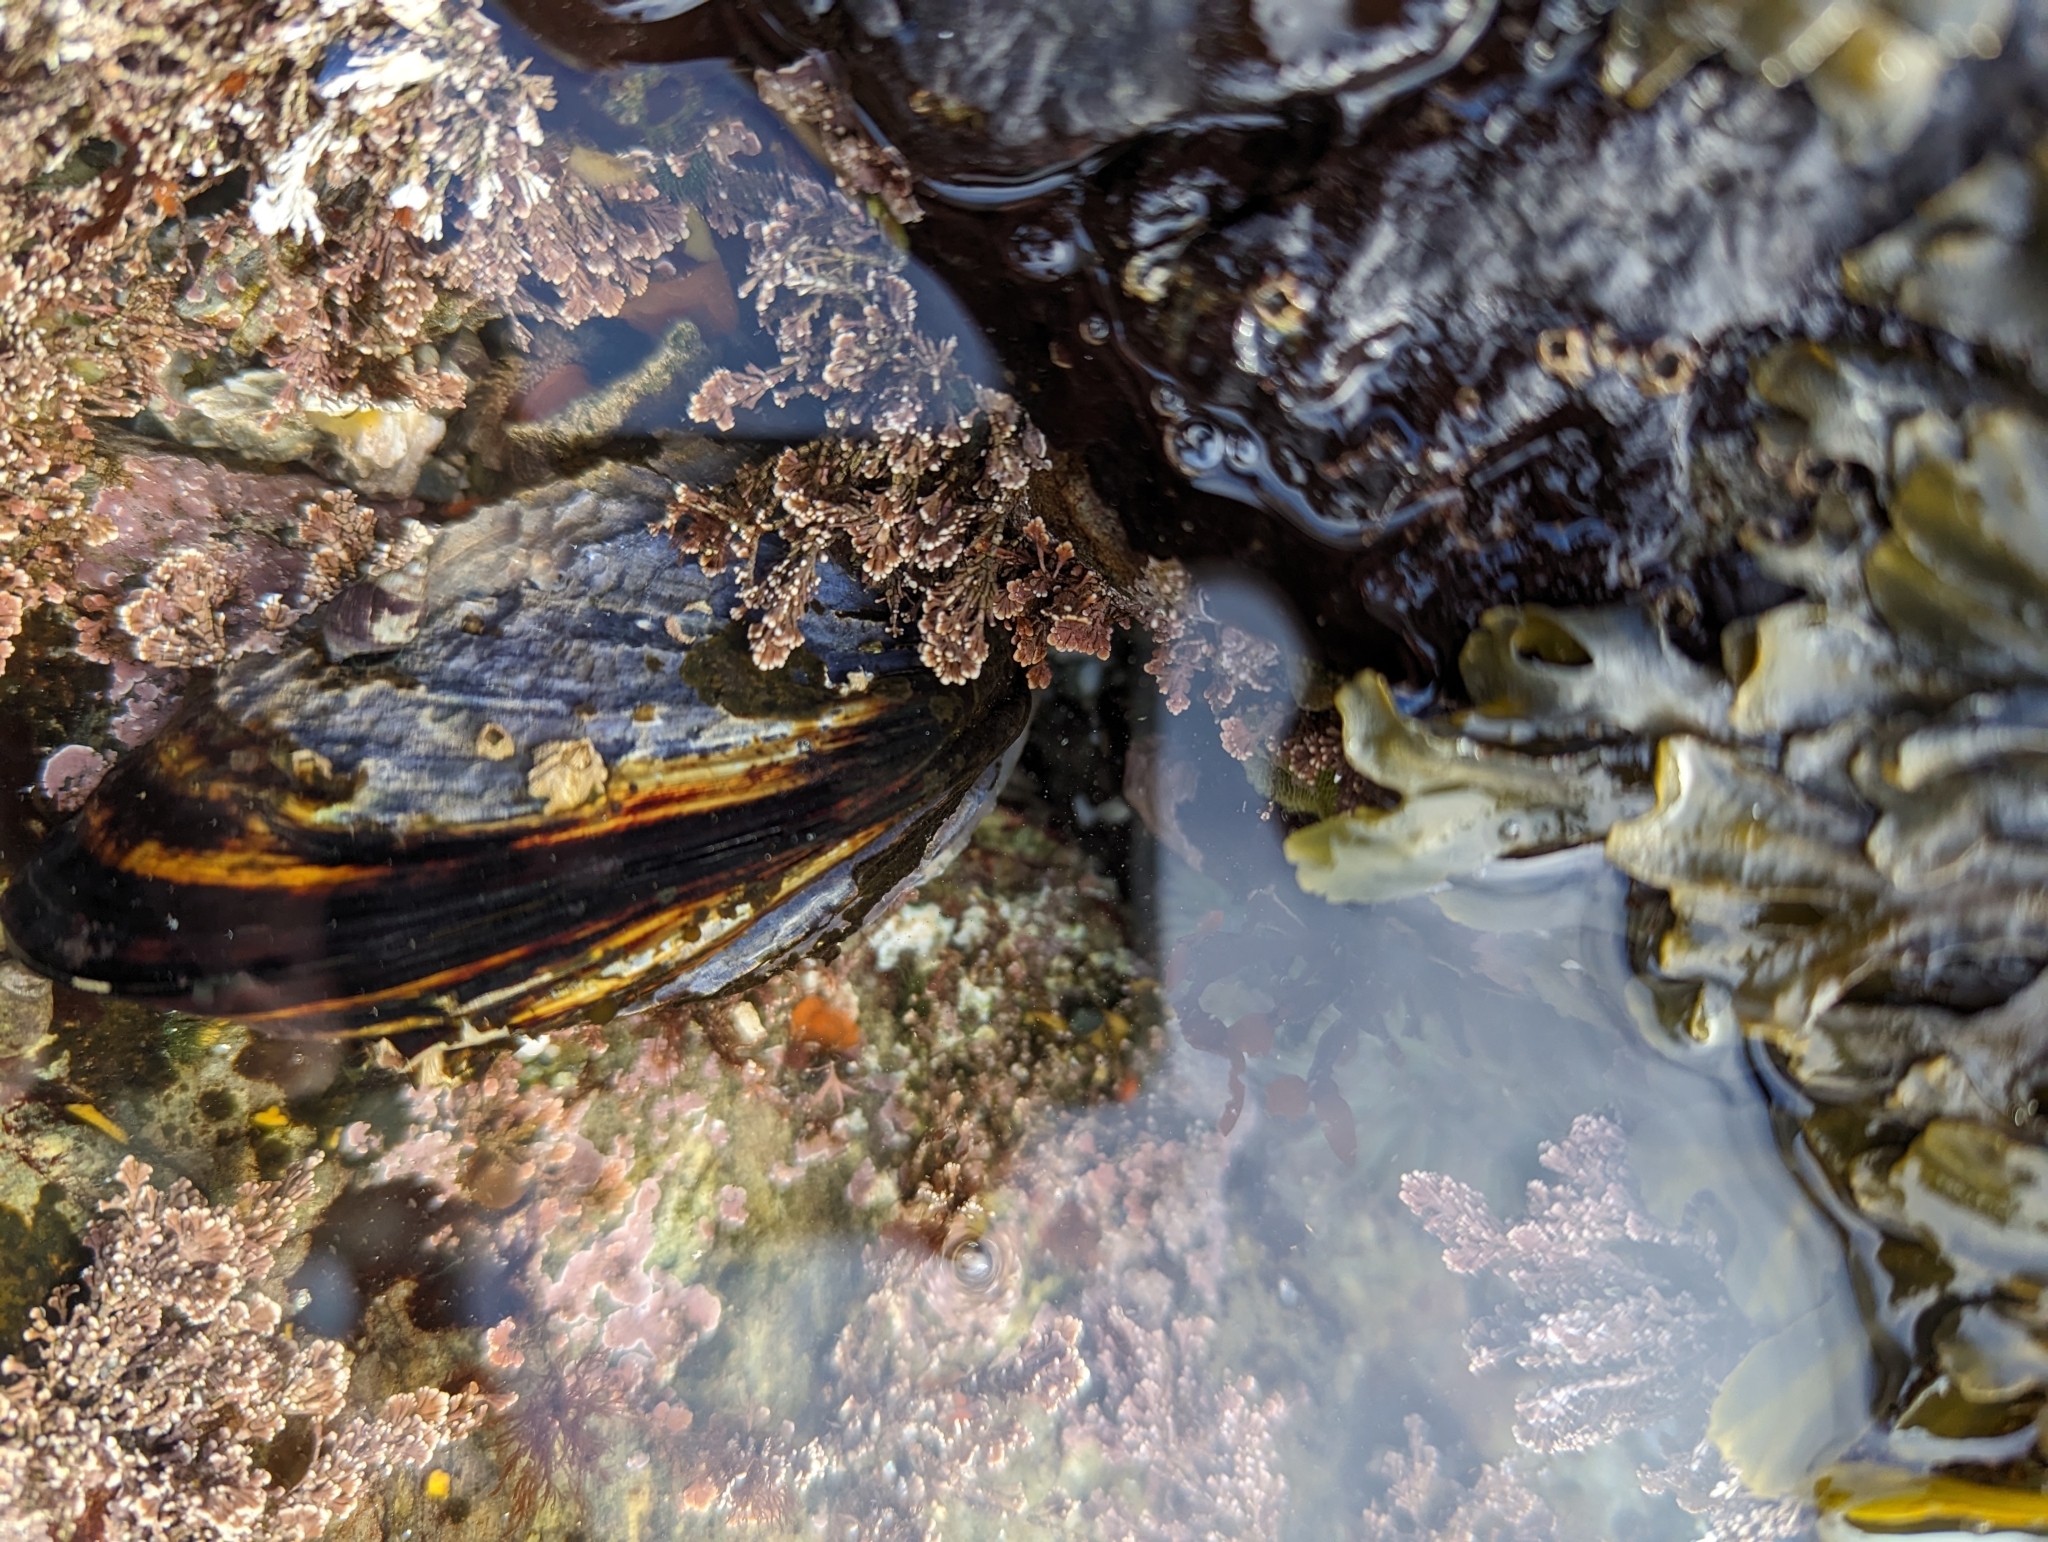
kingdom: Animalia
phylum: Mollusca
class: Bivalvia
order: Mytilida
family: Mytilidae
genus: Mytilus
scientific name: Mytilus californianus
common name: California mussel
